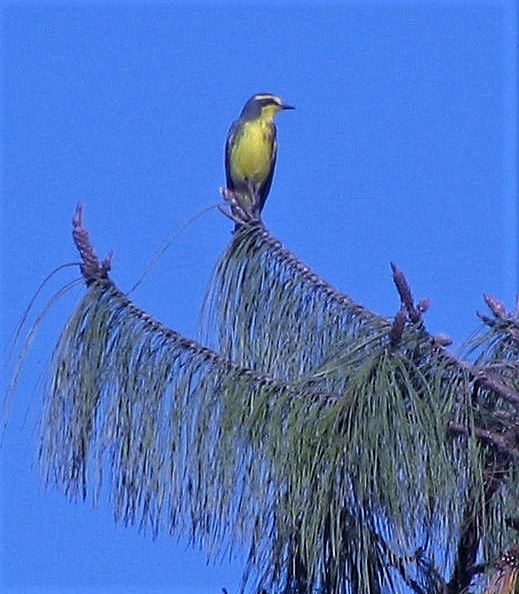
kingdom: Animalia
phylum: Chordata
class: Aves
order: Passeriformes
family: Tyrannidae
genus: Satrapa
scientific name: Satrapa icterophrys
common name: Yellow-browed tyrant
